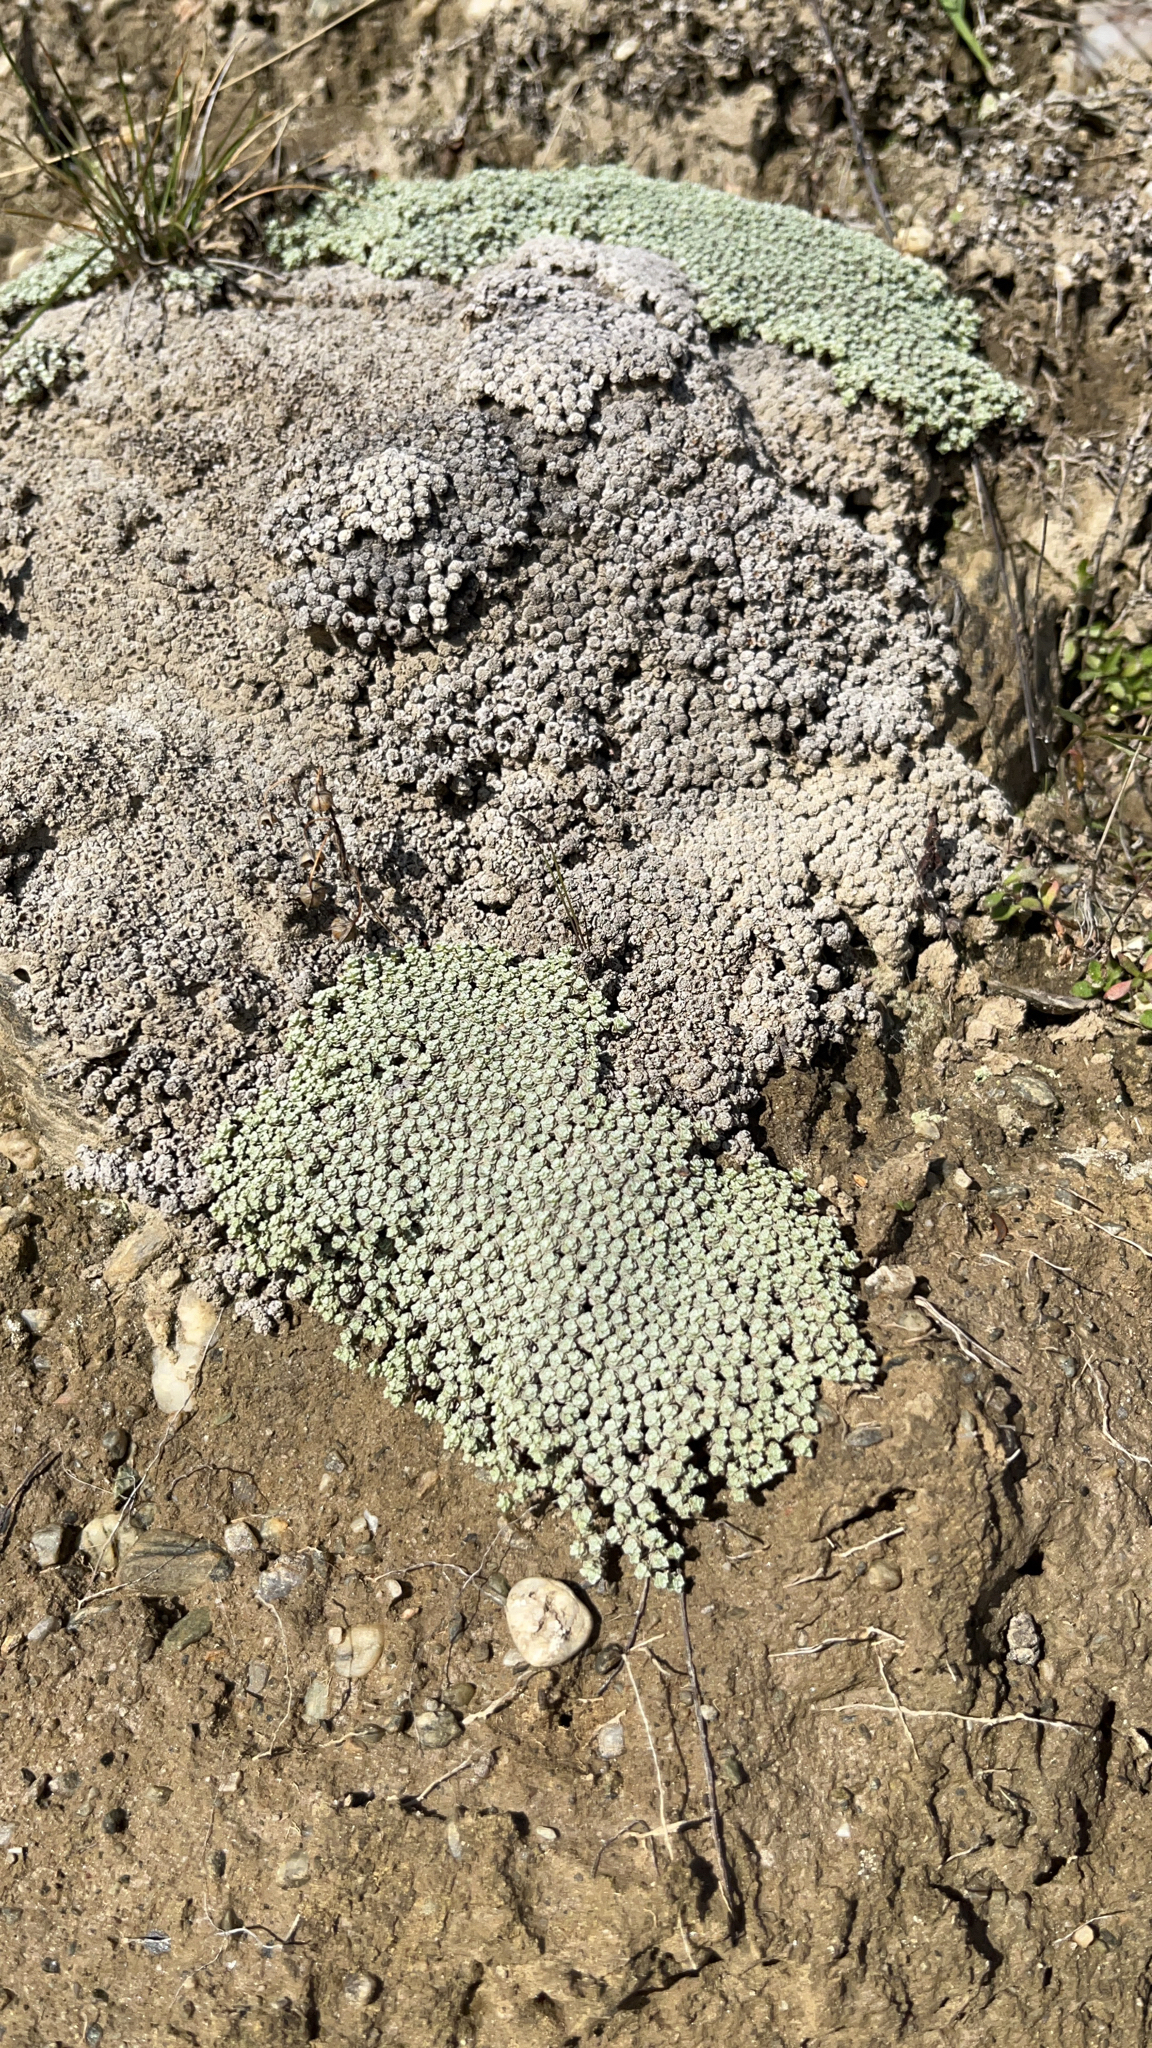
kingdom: Plantae
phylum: Tracheophyta
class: Magnoliopsida
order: Asterales
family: Asteraceae
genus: Raoulia
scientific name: Raoulia australis
